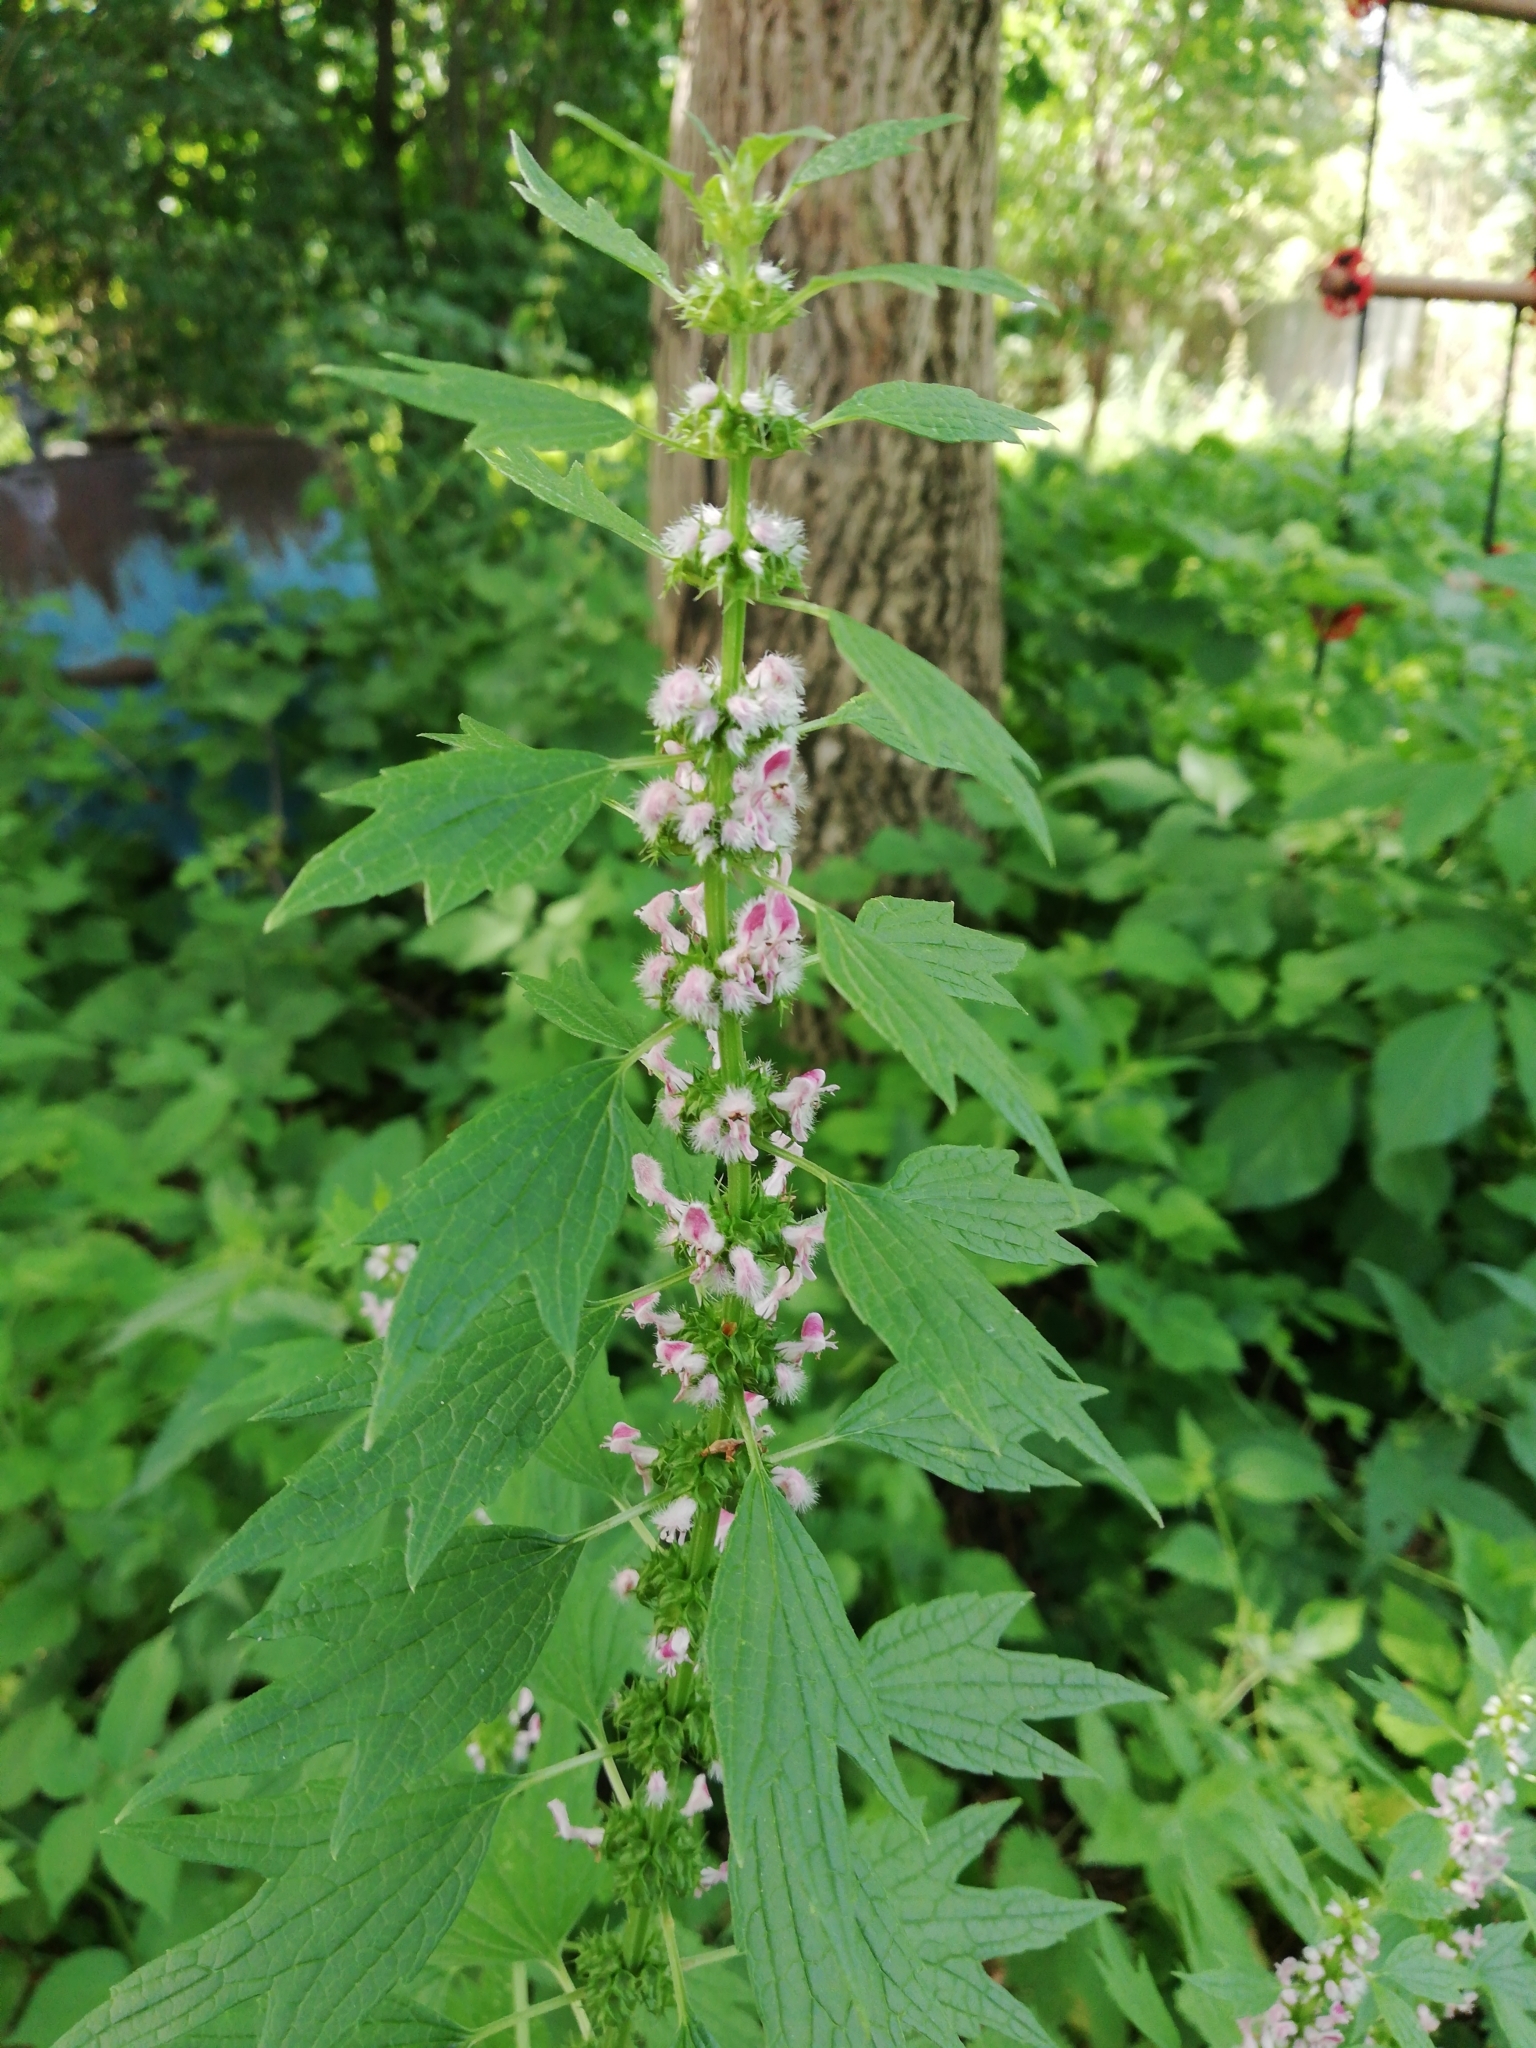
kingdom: Plantae
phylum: Tracheophyta
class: Magnoliopsida
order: Lamiales
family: Lamiaceae
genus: Leonurus
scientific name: Leonurus cardiaca
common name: Motherwort
